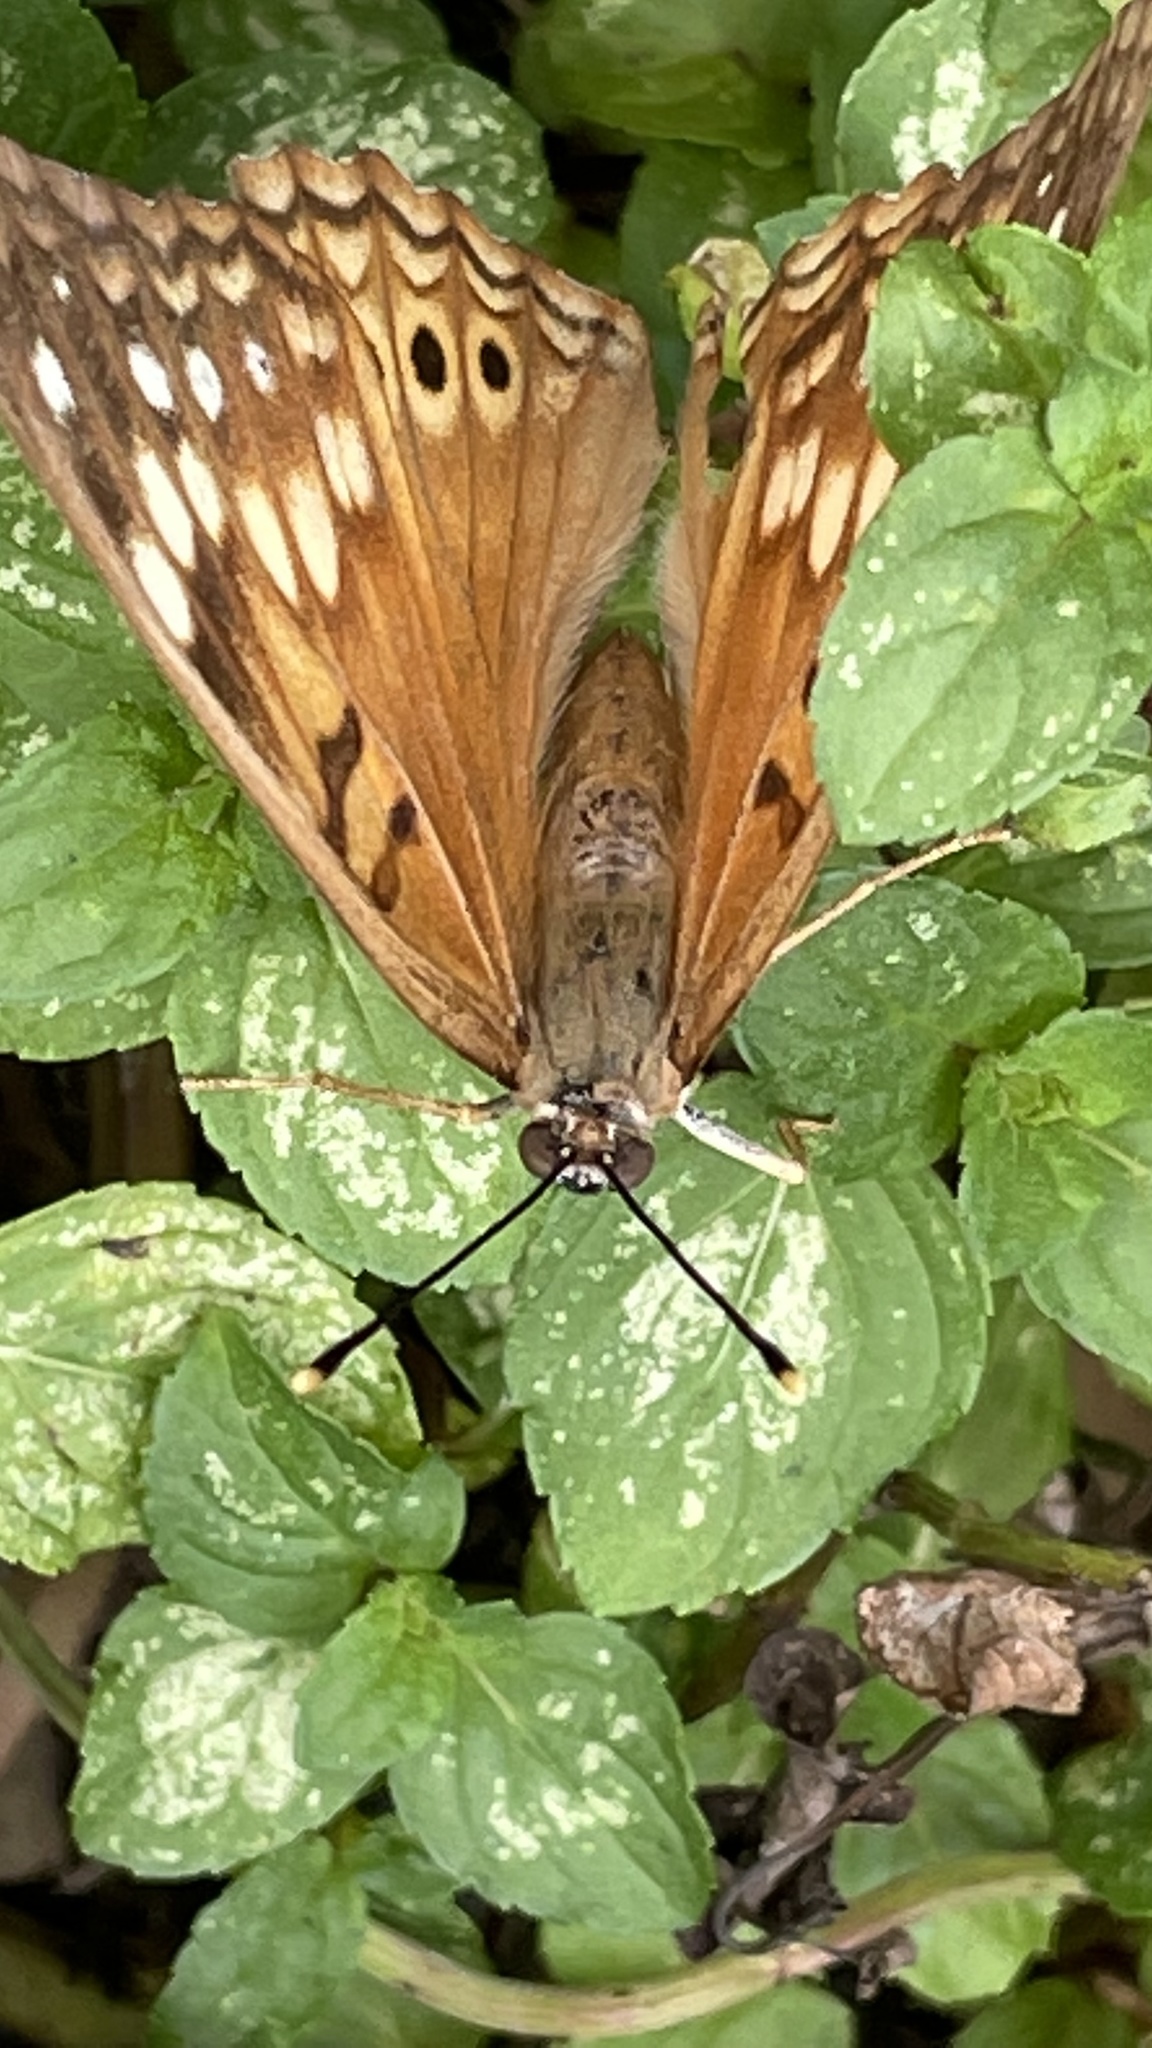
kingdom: Animalia
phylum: Arthropoda
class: Insecta
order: Lepidoptera
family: Nymphalidae
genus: Asterocampa
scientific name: Asterocampa clyton
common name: Tawny emperor
